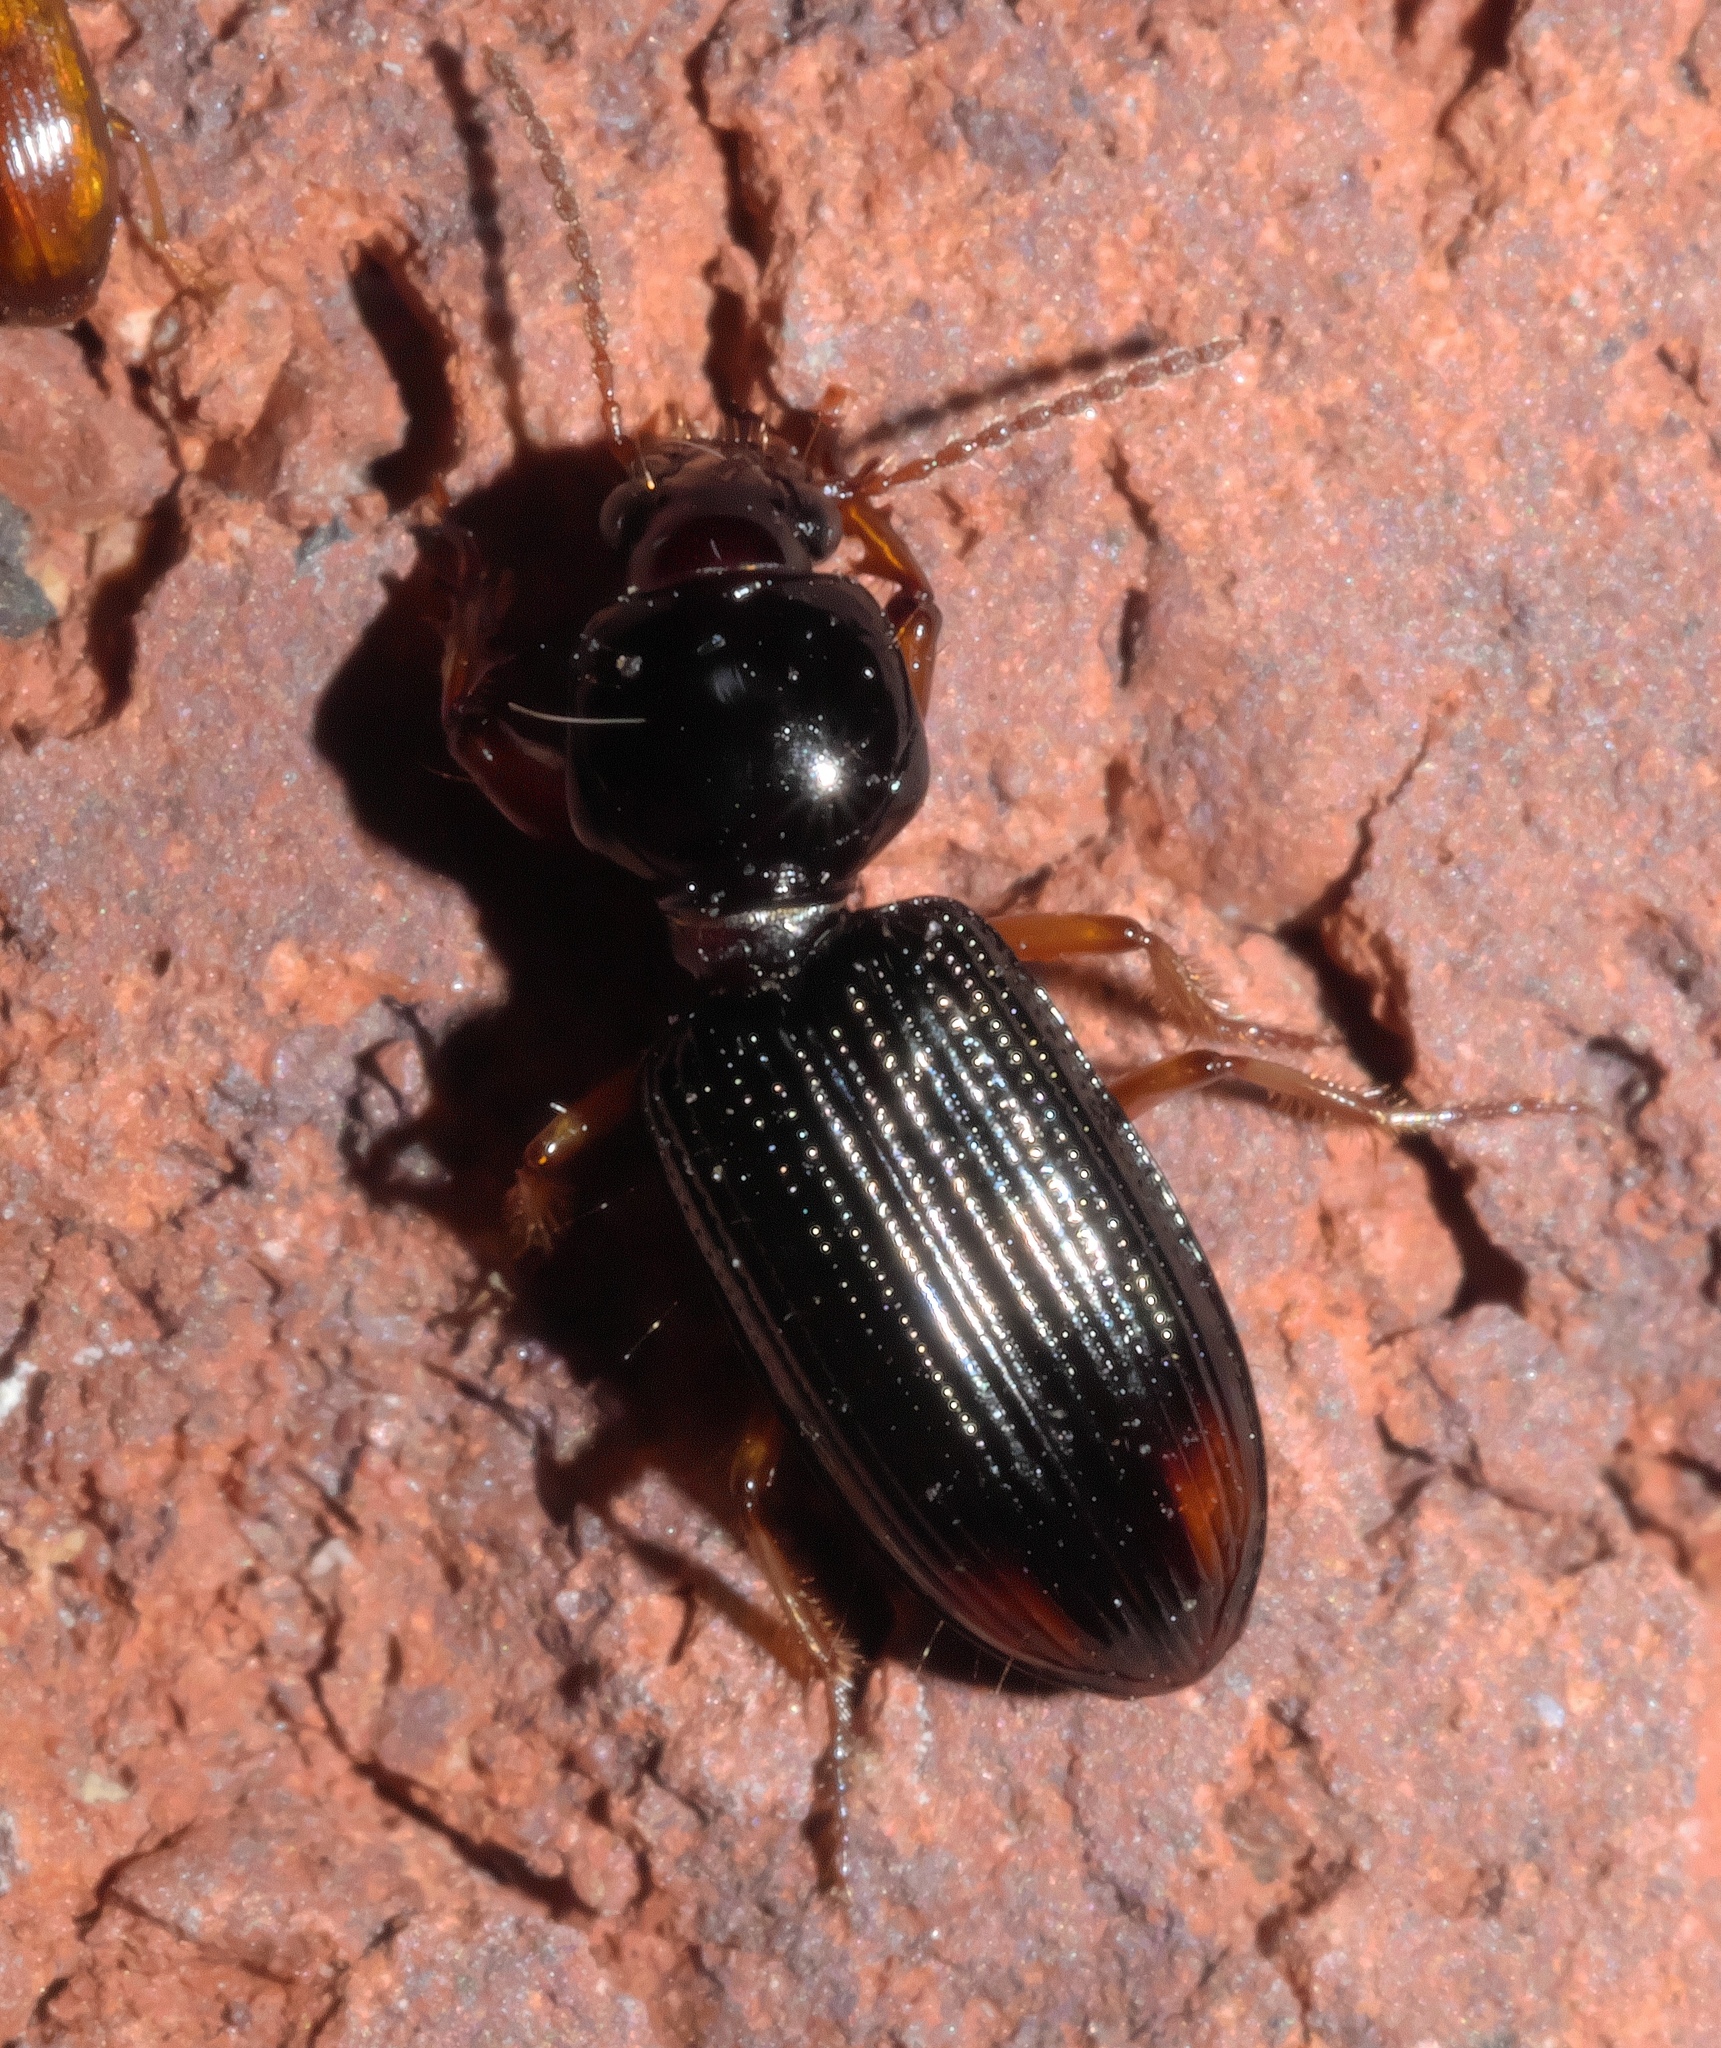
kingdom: Animalia
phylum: Arthropoda
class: Insecta
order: Coleoptera
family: Carabidae
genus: Aspidoglossa
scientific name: Aspidoglossa subangulata
